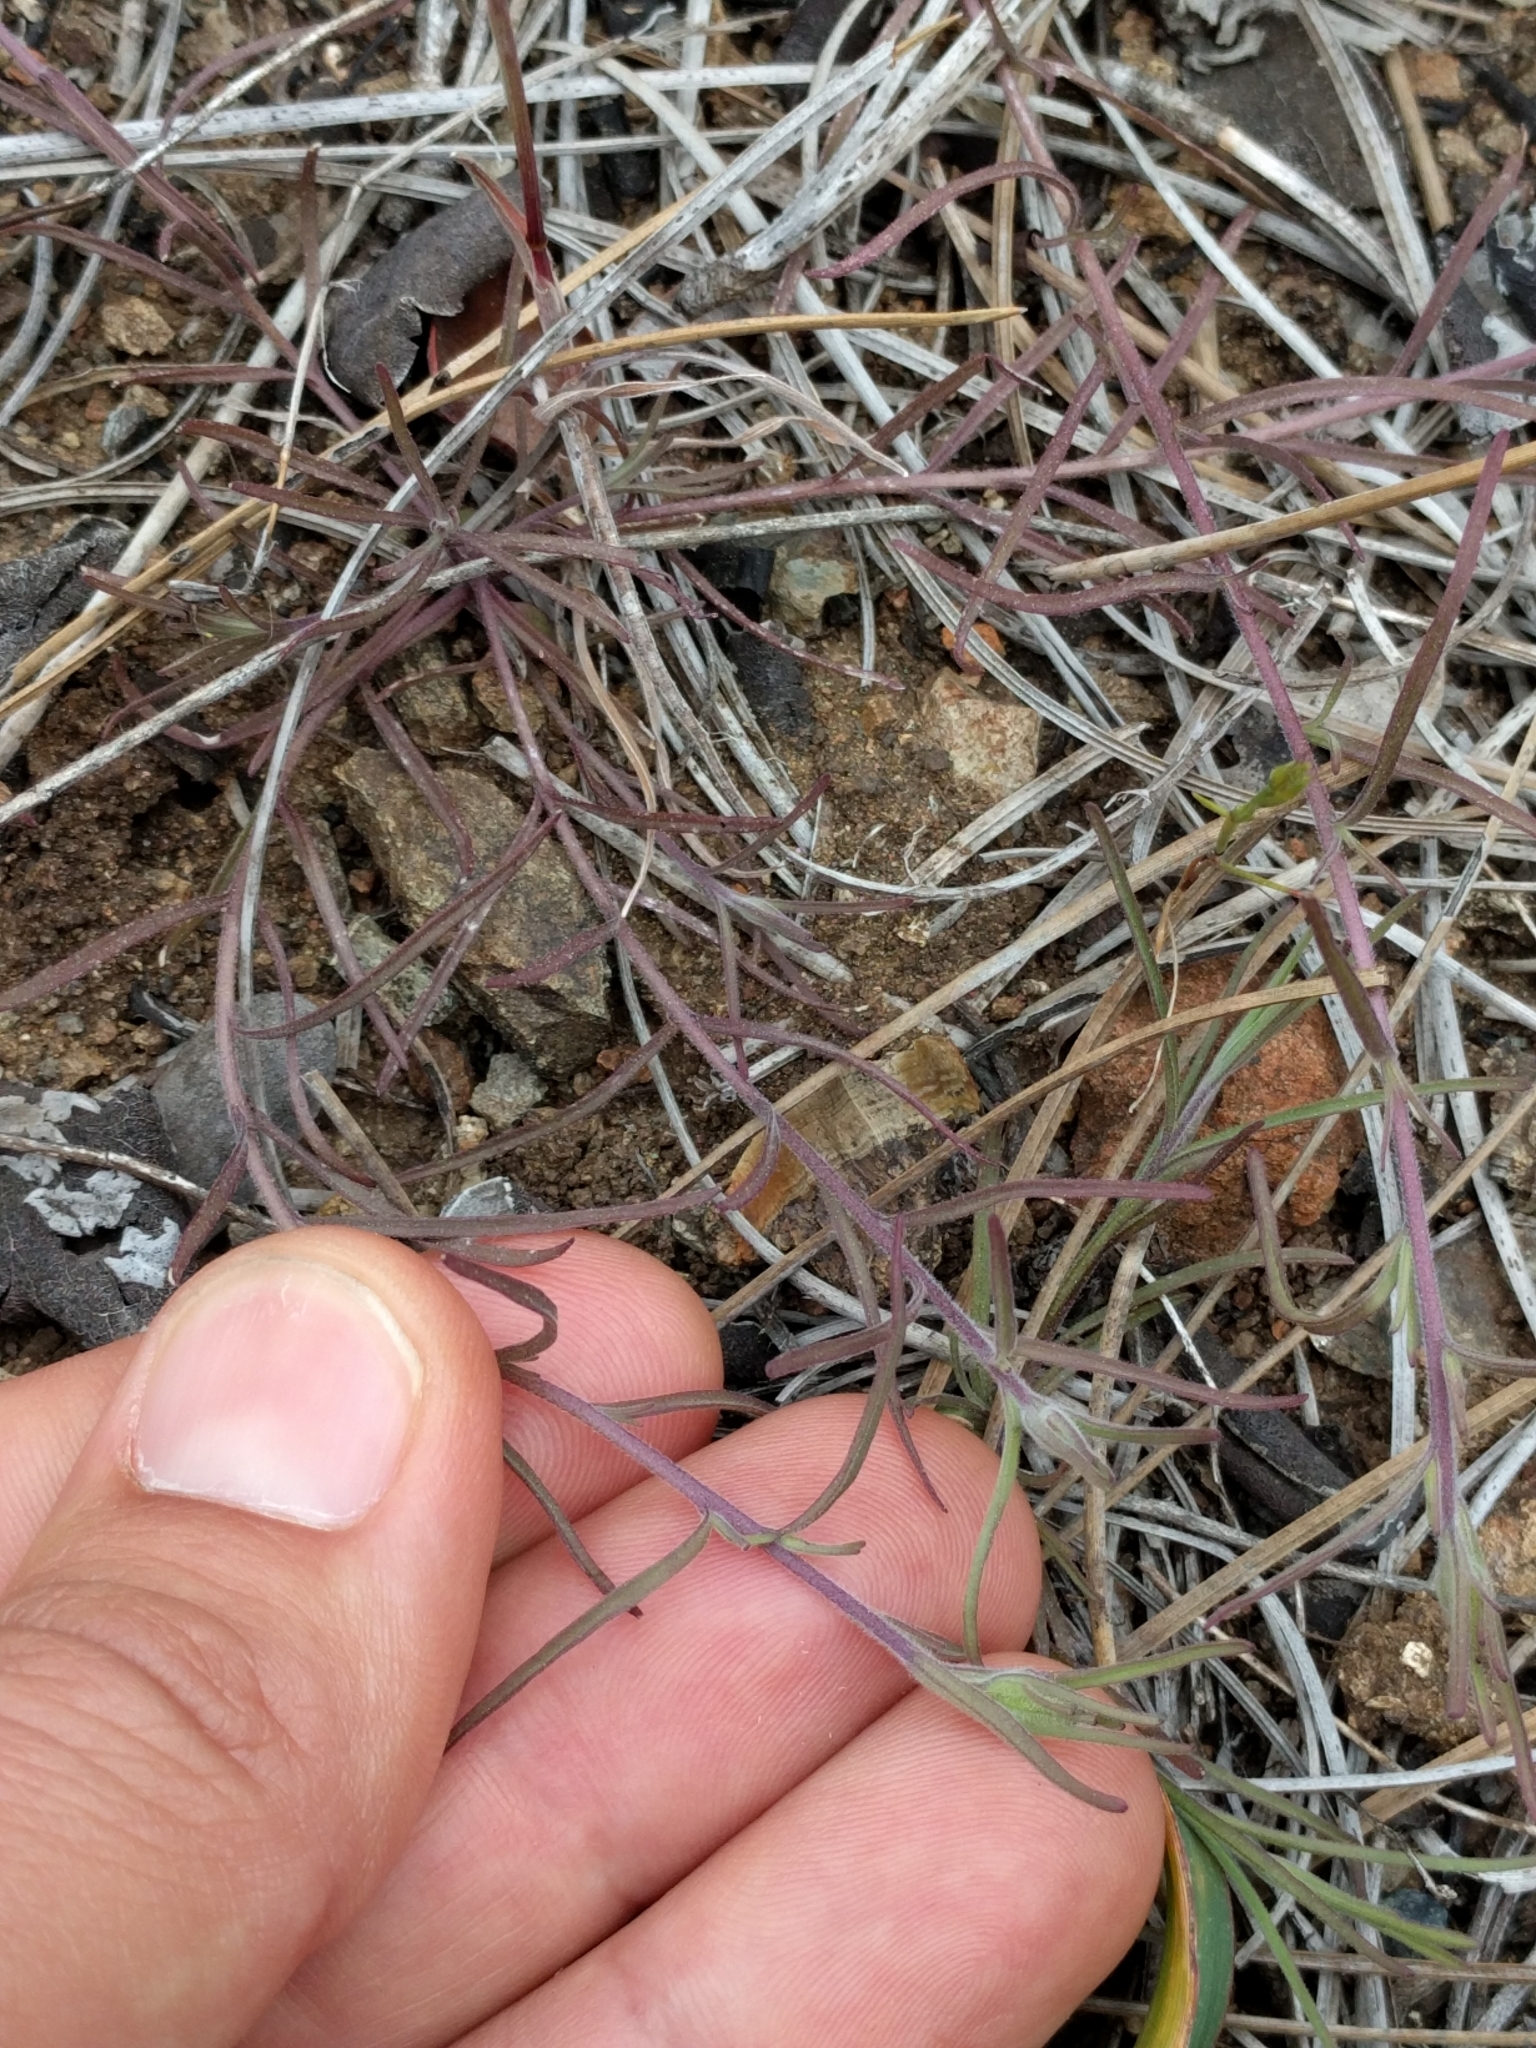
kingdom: Plantae
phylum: Tracheophyta
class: Magnoliopsida
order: Lamiales
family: Orobanchaceae
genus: Cordylanthus
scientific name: Cordylanthus nidularius
